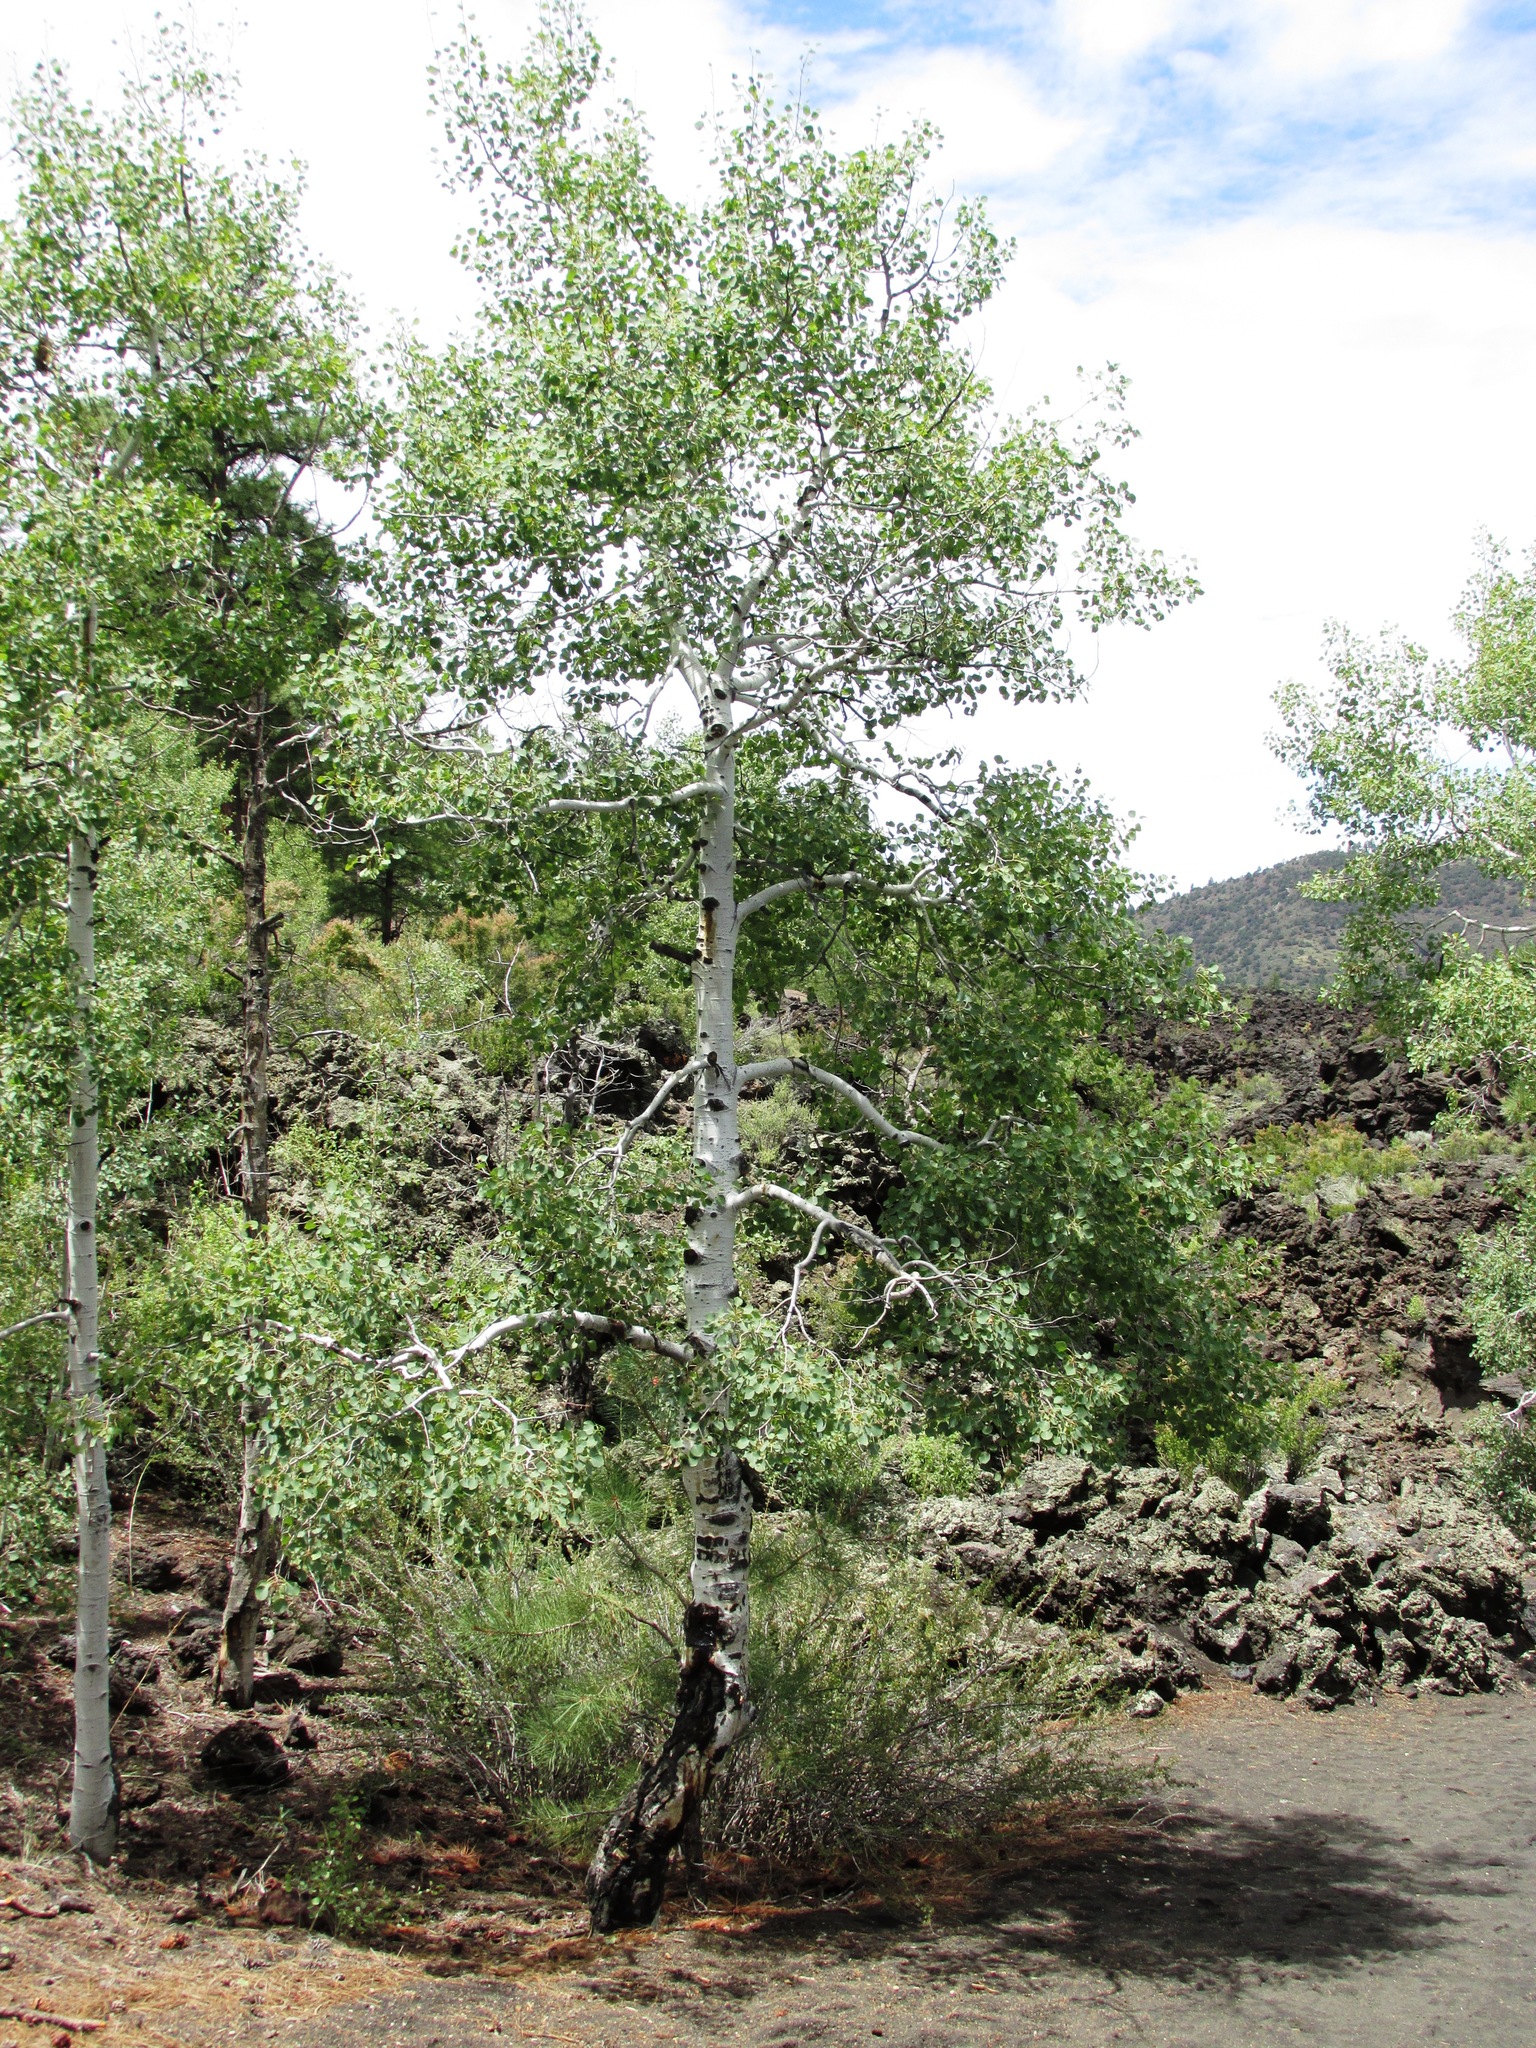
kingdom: Plantae
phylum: Tracheophyta
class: Magnoliopsida
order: Malpighiales
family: Salicaceae
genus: Populus
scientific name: Populus tremuloides
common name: Quaking aspen
